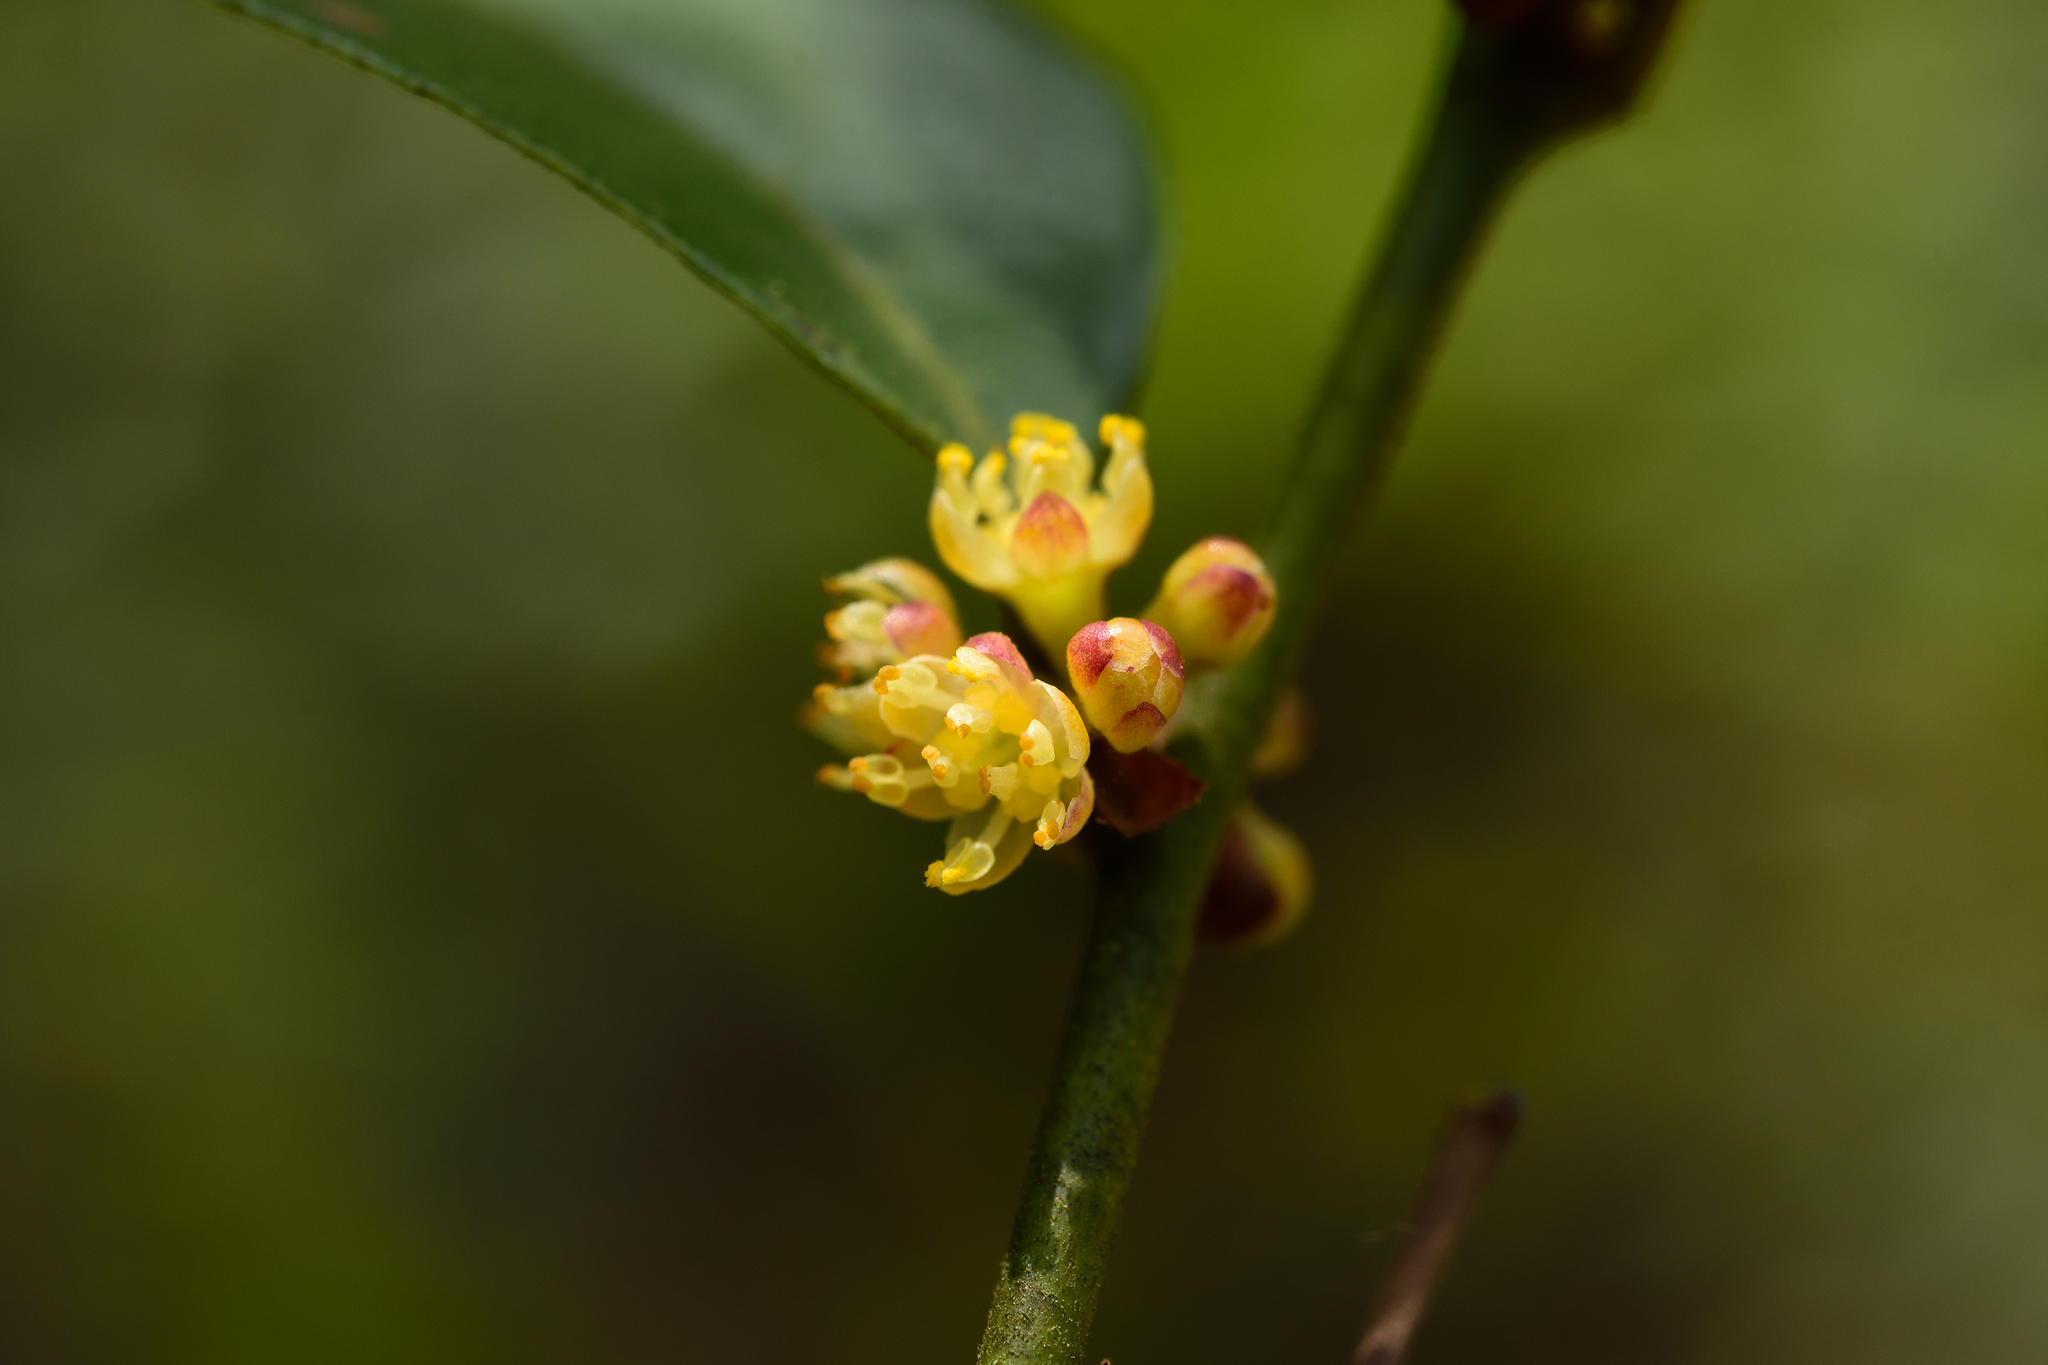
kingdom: Plantae
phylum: Tracheophyta
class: Magnoliopsida
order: Laurales
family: Lauraceae
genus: Lindera
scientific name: Lindera akoensis
